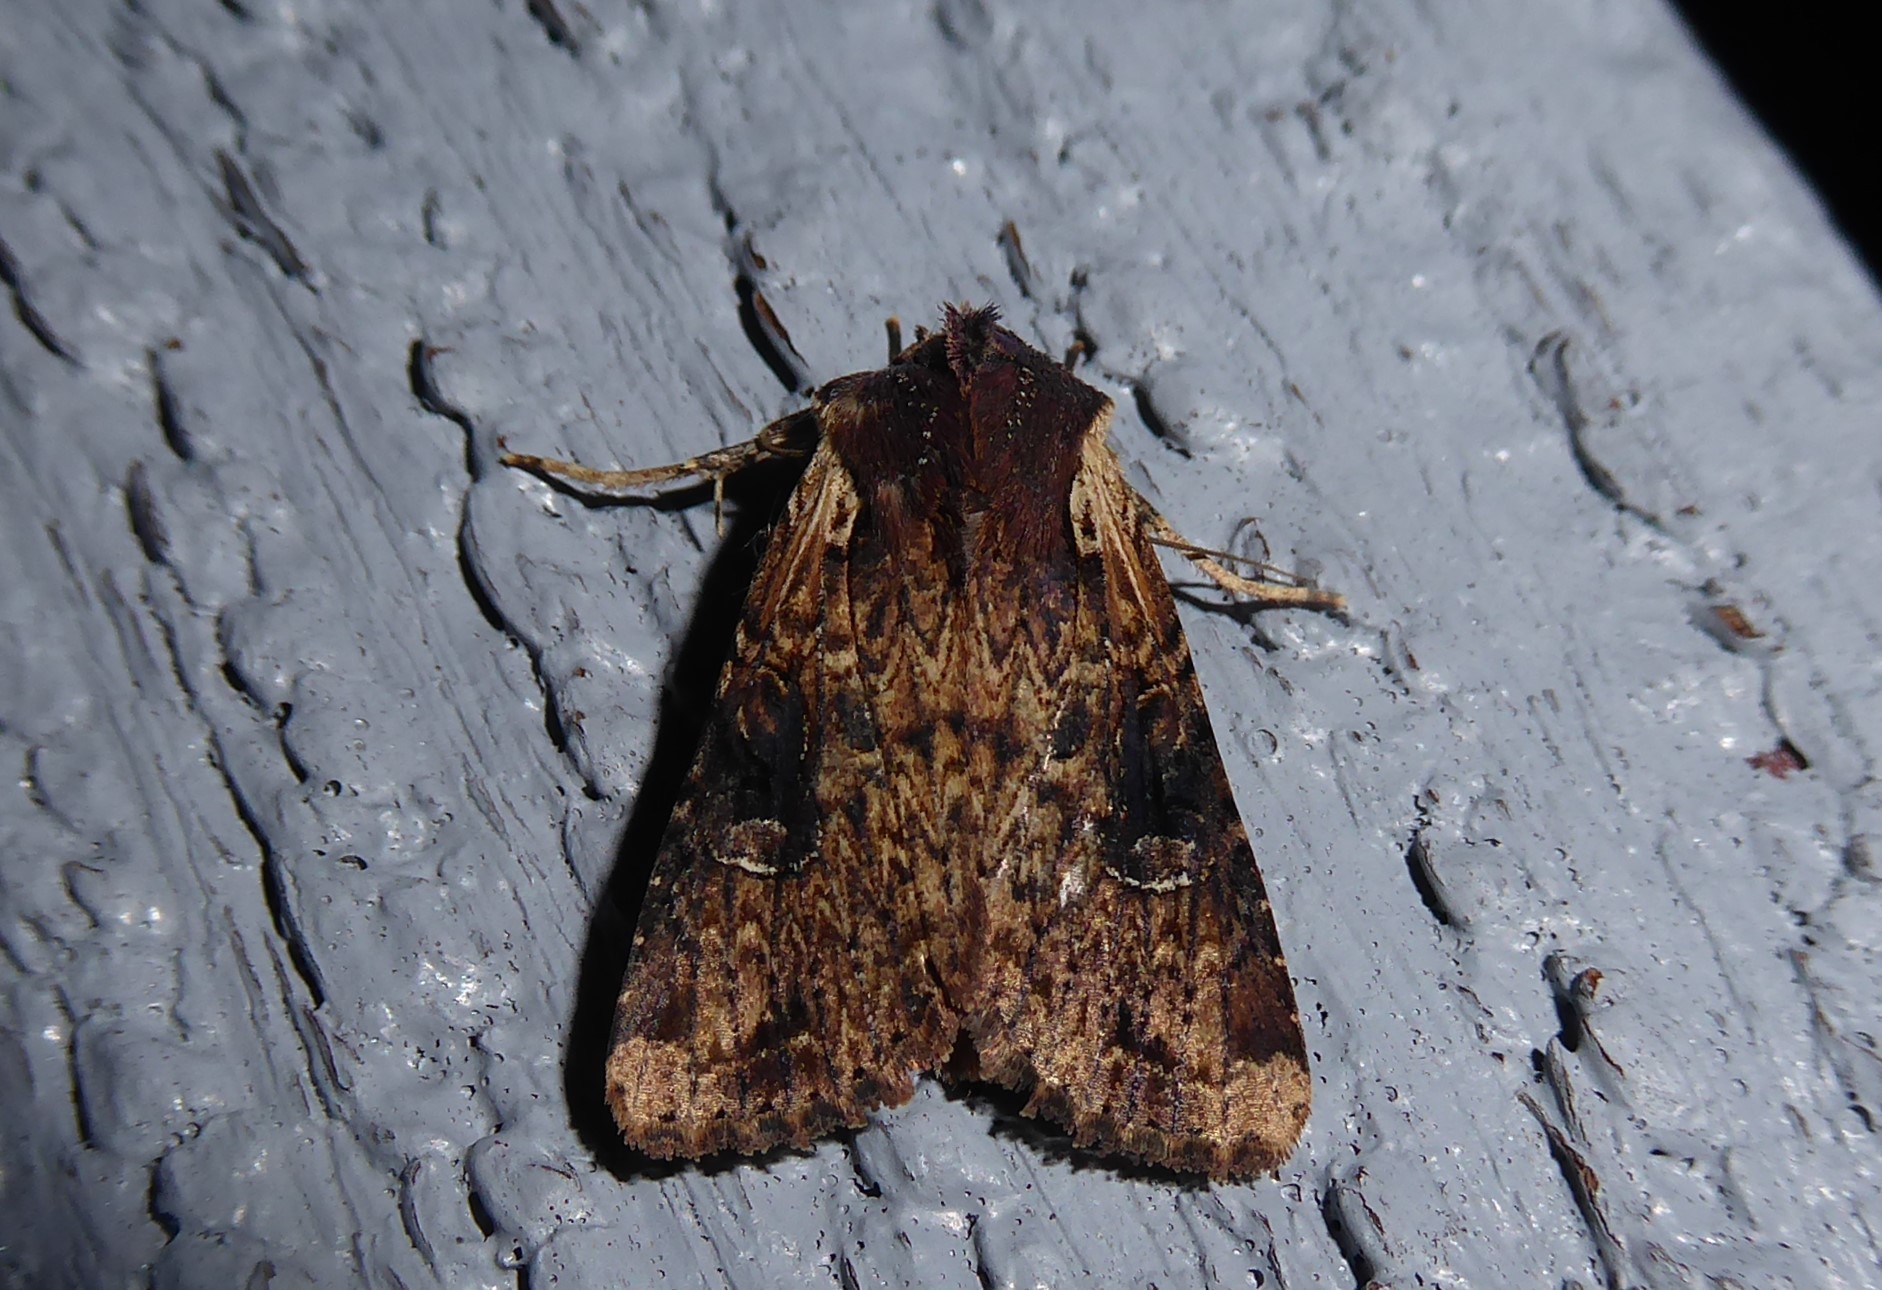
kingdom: Animalia
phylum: Arthropoda
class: Insecta
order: Lepidoptera
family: Noctuidae
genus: Ichneutica
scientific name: Ichneutica omoplaca
